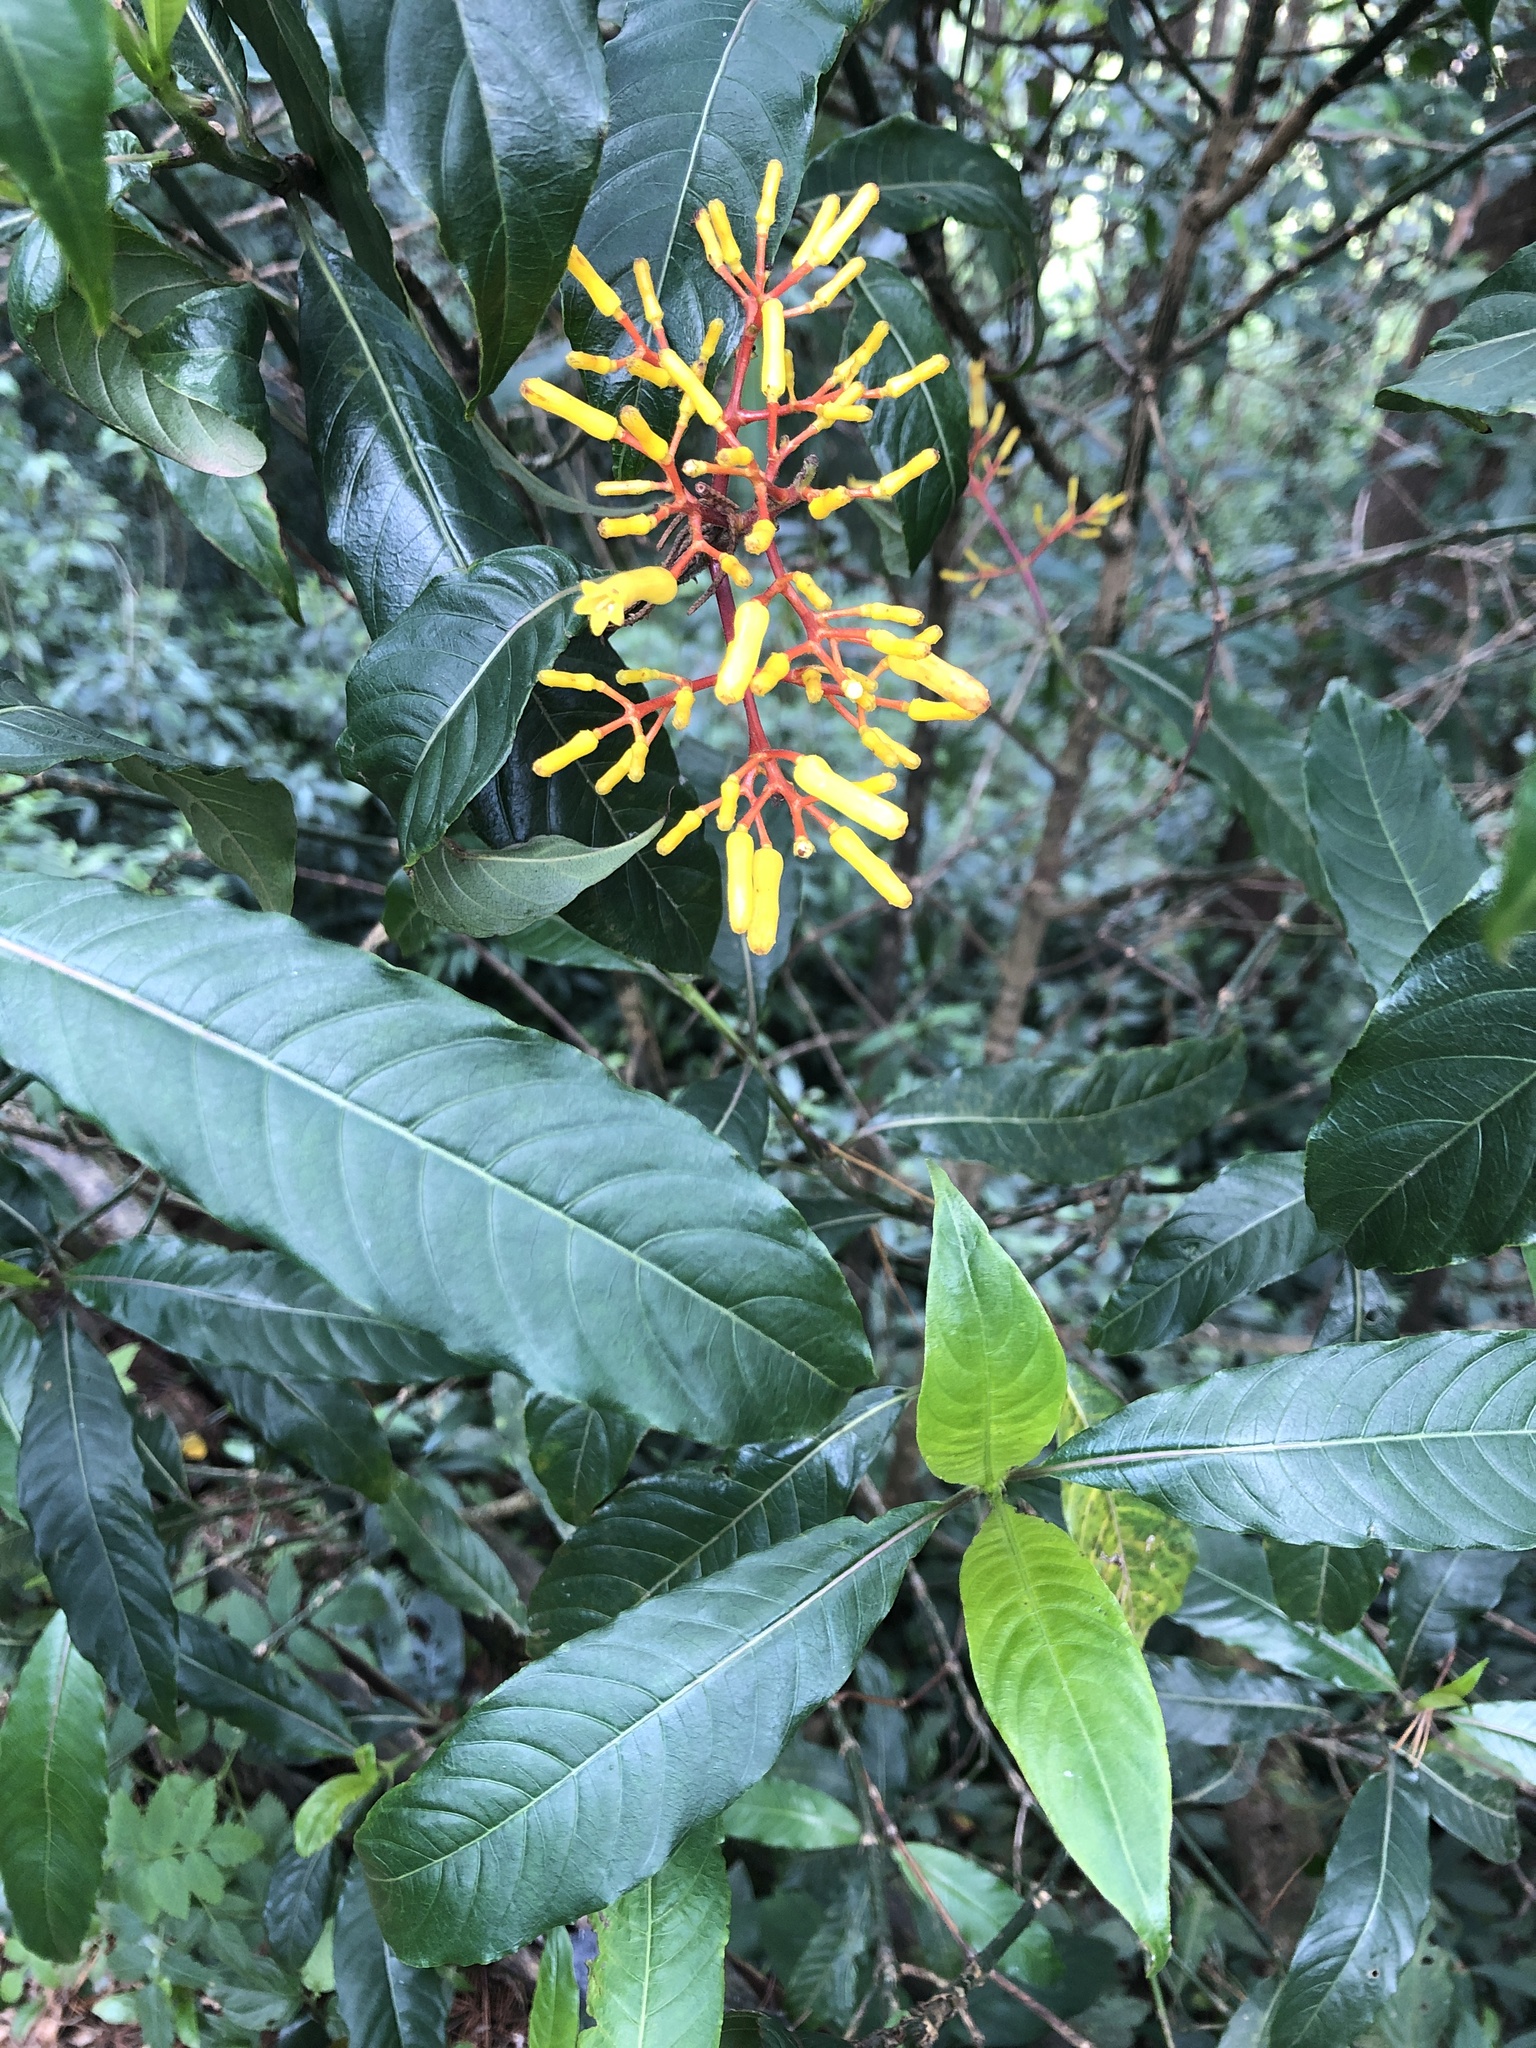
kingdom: Plantae
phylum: Tracheophyta
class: Magnoliopsida
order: Gentianales
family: Rubiaceae
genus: Palicourea
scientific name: Palicourea padifolia
